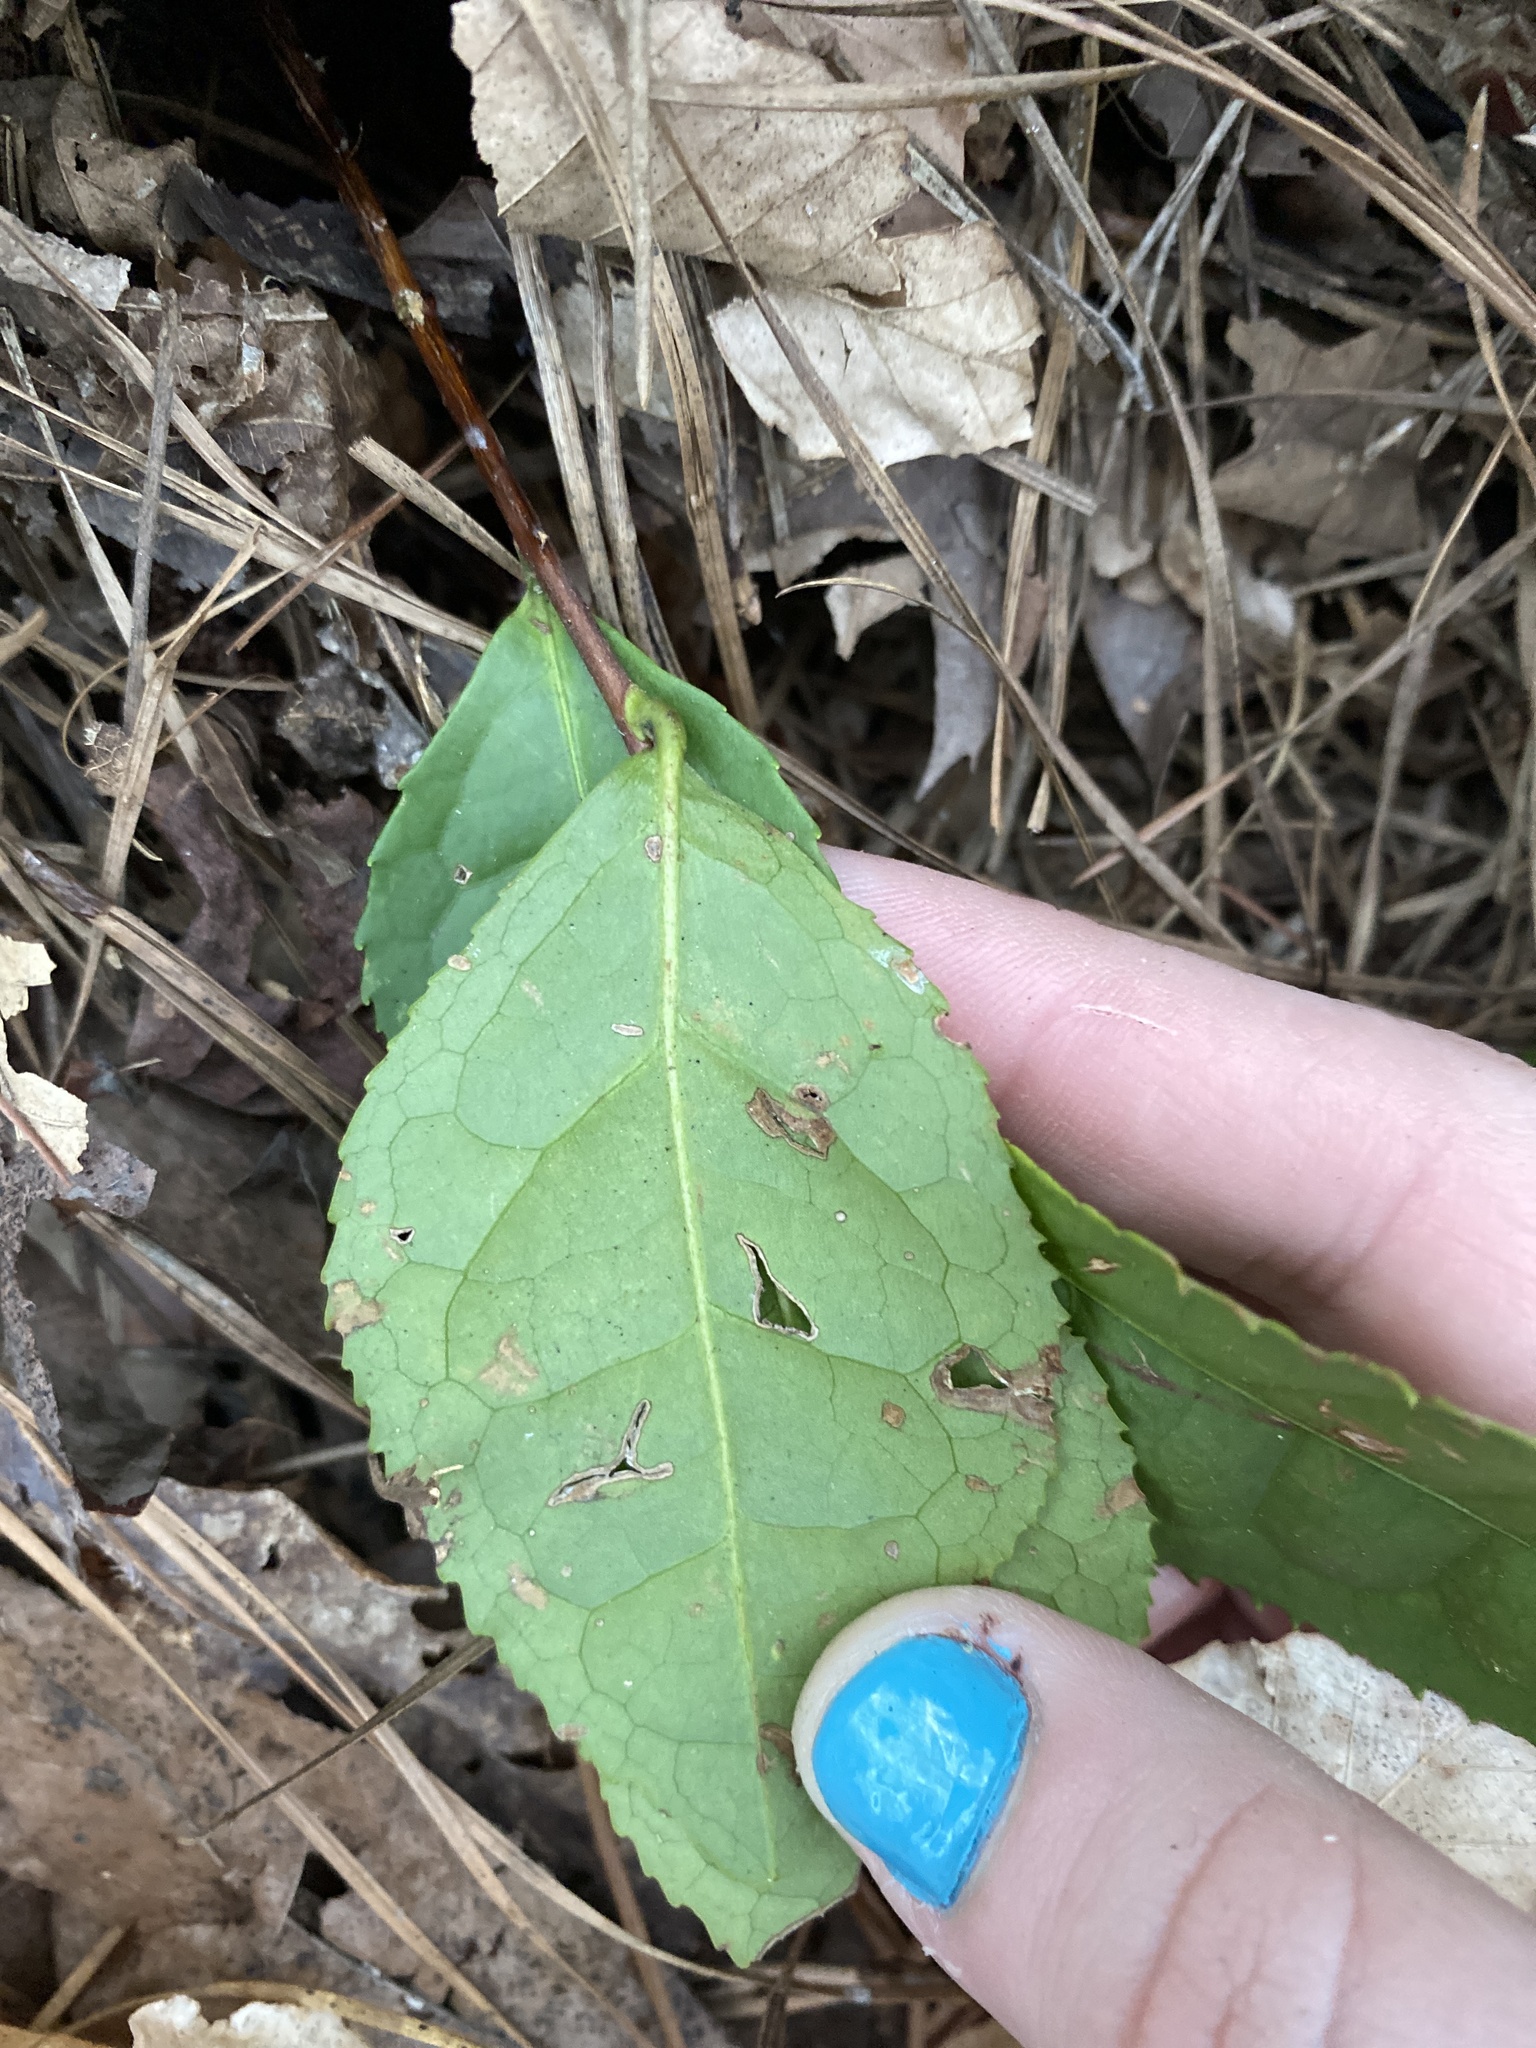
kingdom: Plantae
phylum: Tracheophyta
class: Magnoliopsida
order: Lamiales
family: Oleaceae
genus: Osmanthus
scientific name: Osmanthus fragrans
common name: Sweet osmanthus
